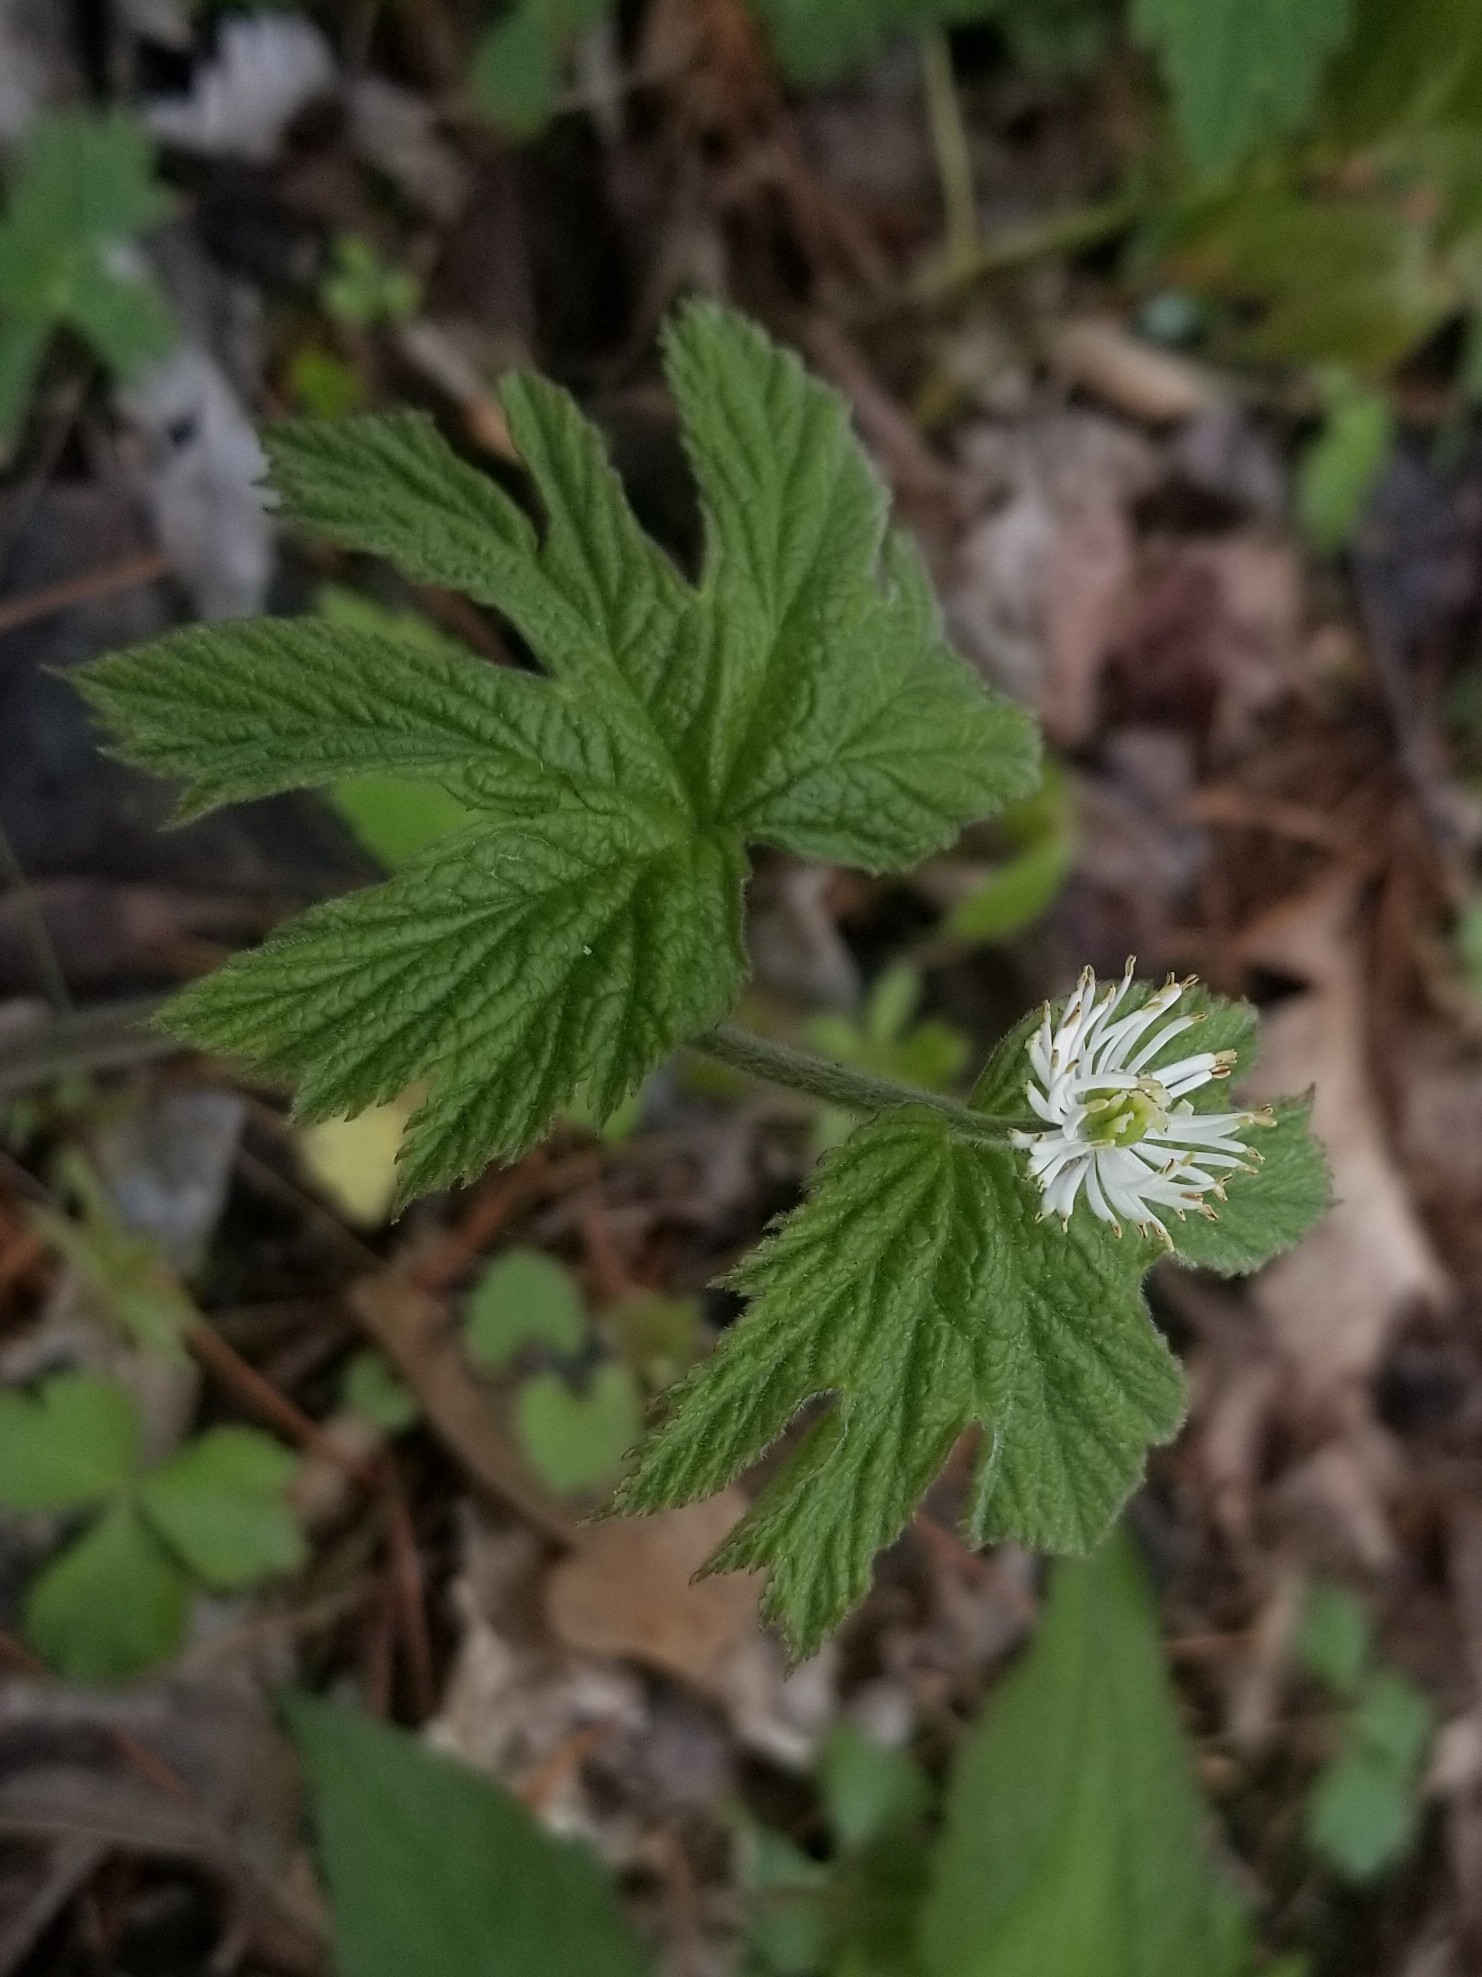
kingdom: Plantae
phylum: Tracheophyta
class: Magnoliopsida
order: Ranunculales
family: Ranunculaceae
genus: Hydrastis
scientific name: Hydrastis canadensis
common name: Goldenseal
